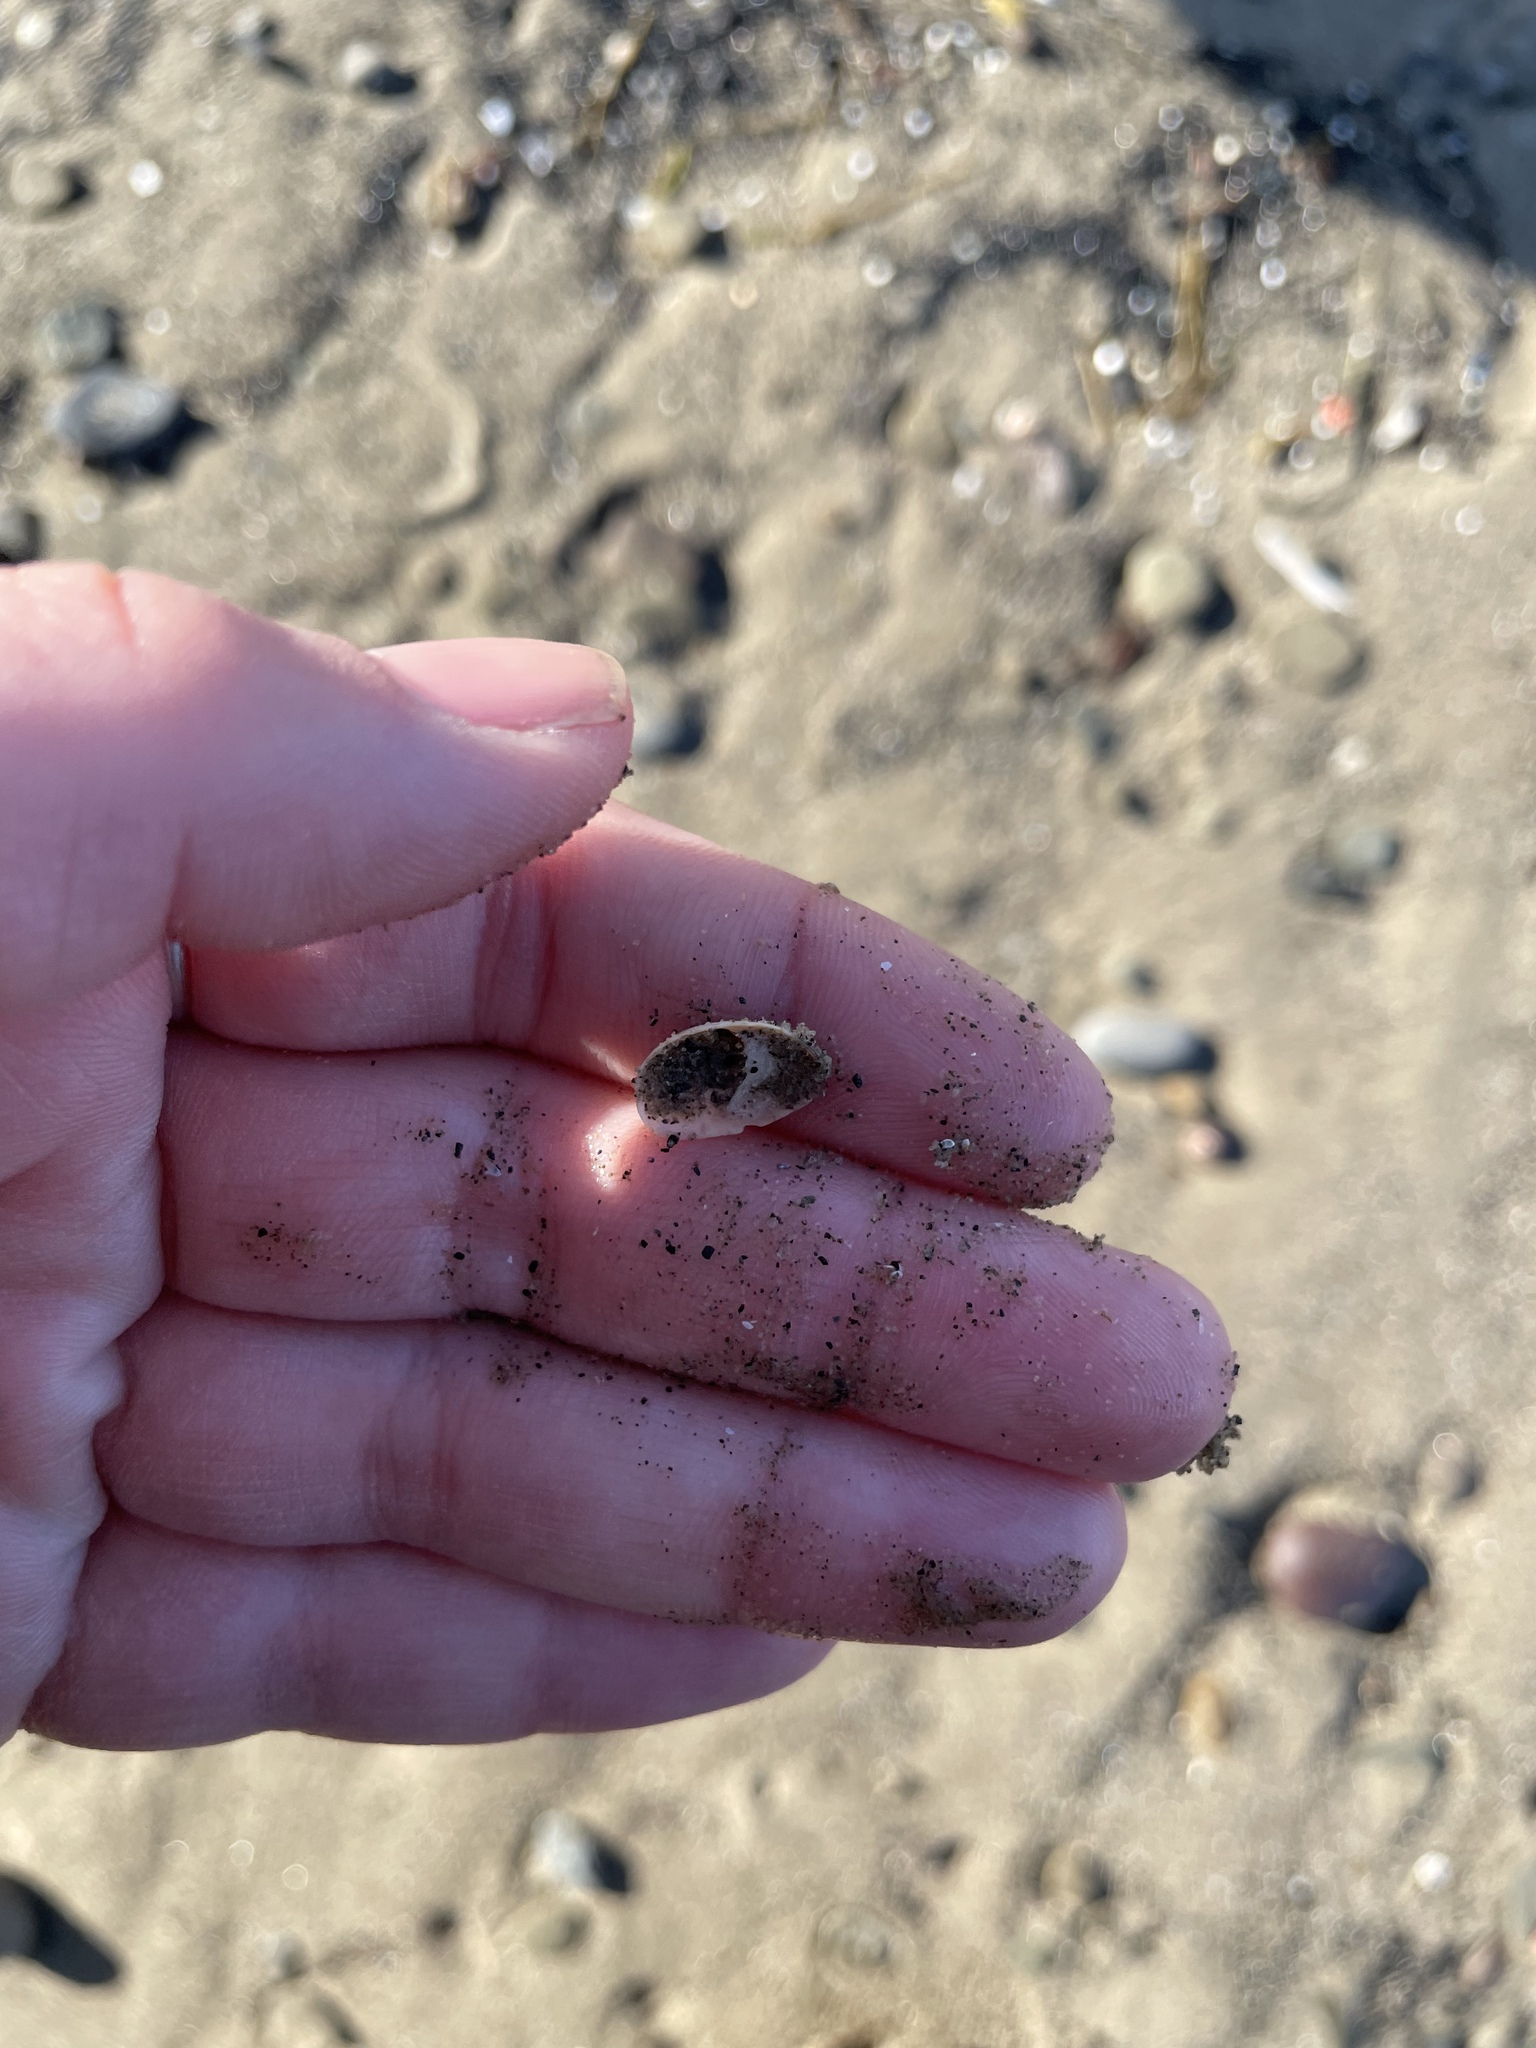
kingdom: Animalia
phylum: Mollusca
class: Gastropoda
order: Littorinimorpha
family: Calyptraeidae
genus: Crepidula
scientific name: Crepidula fornicata
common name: Slipper limpet
